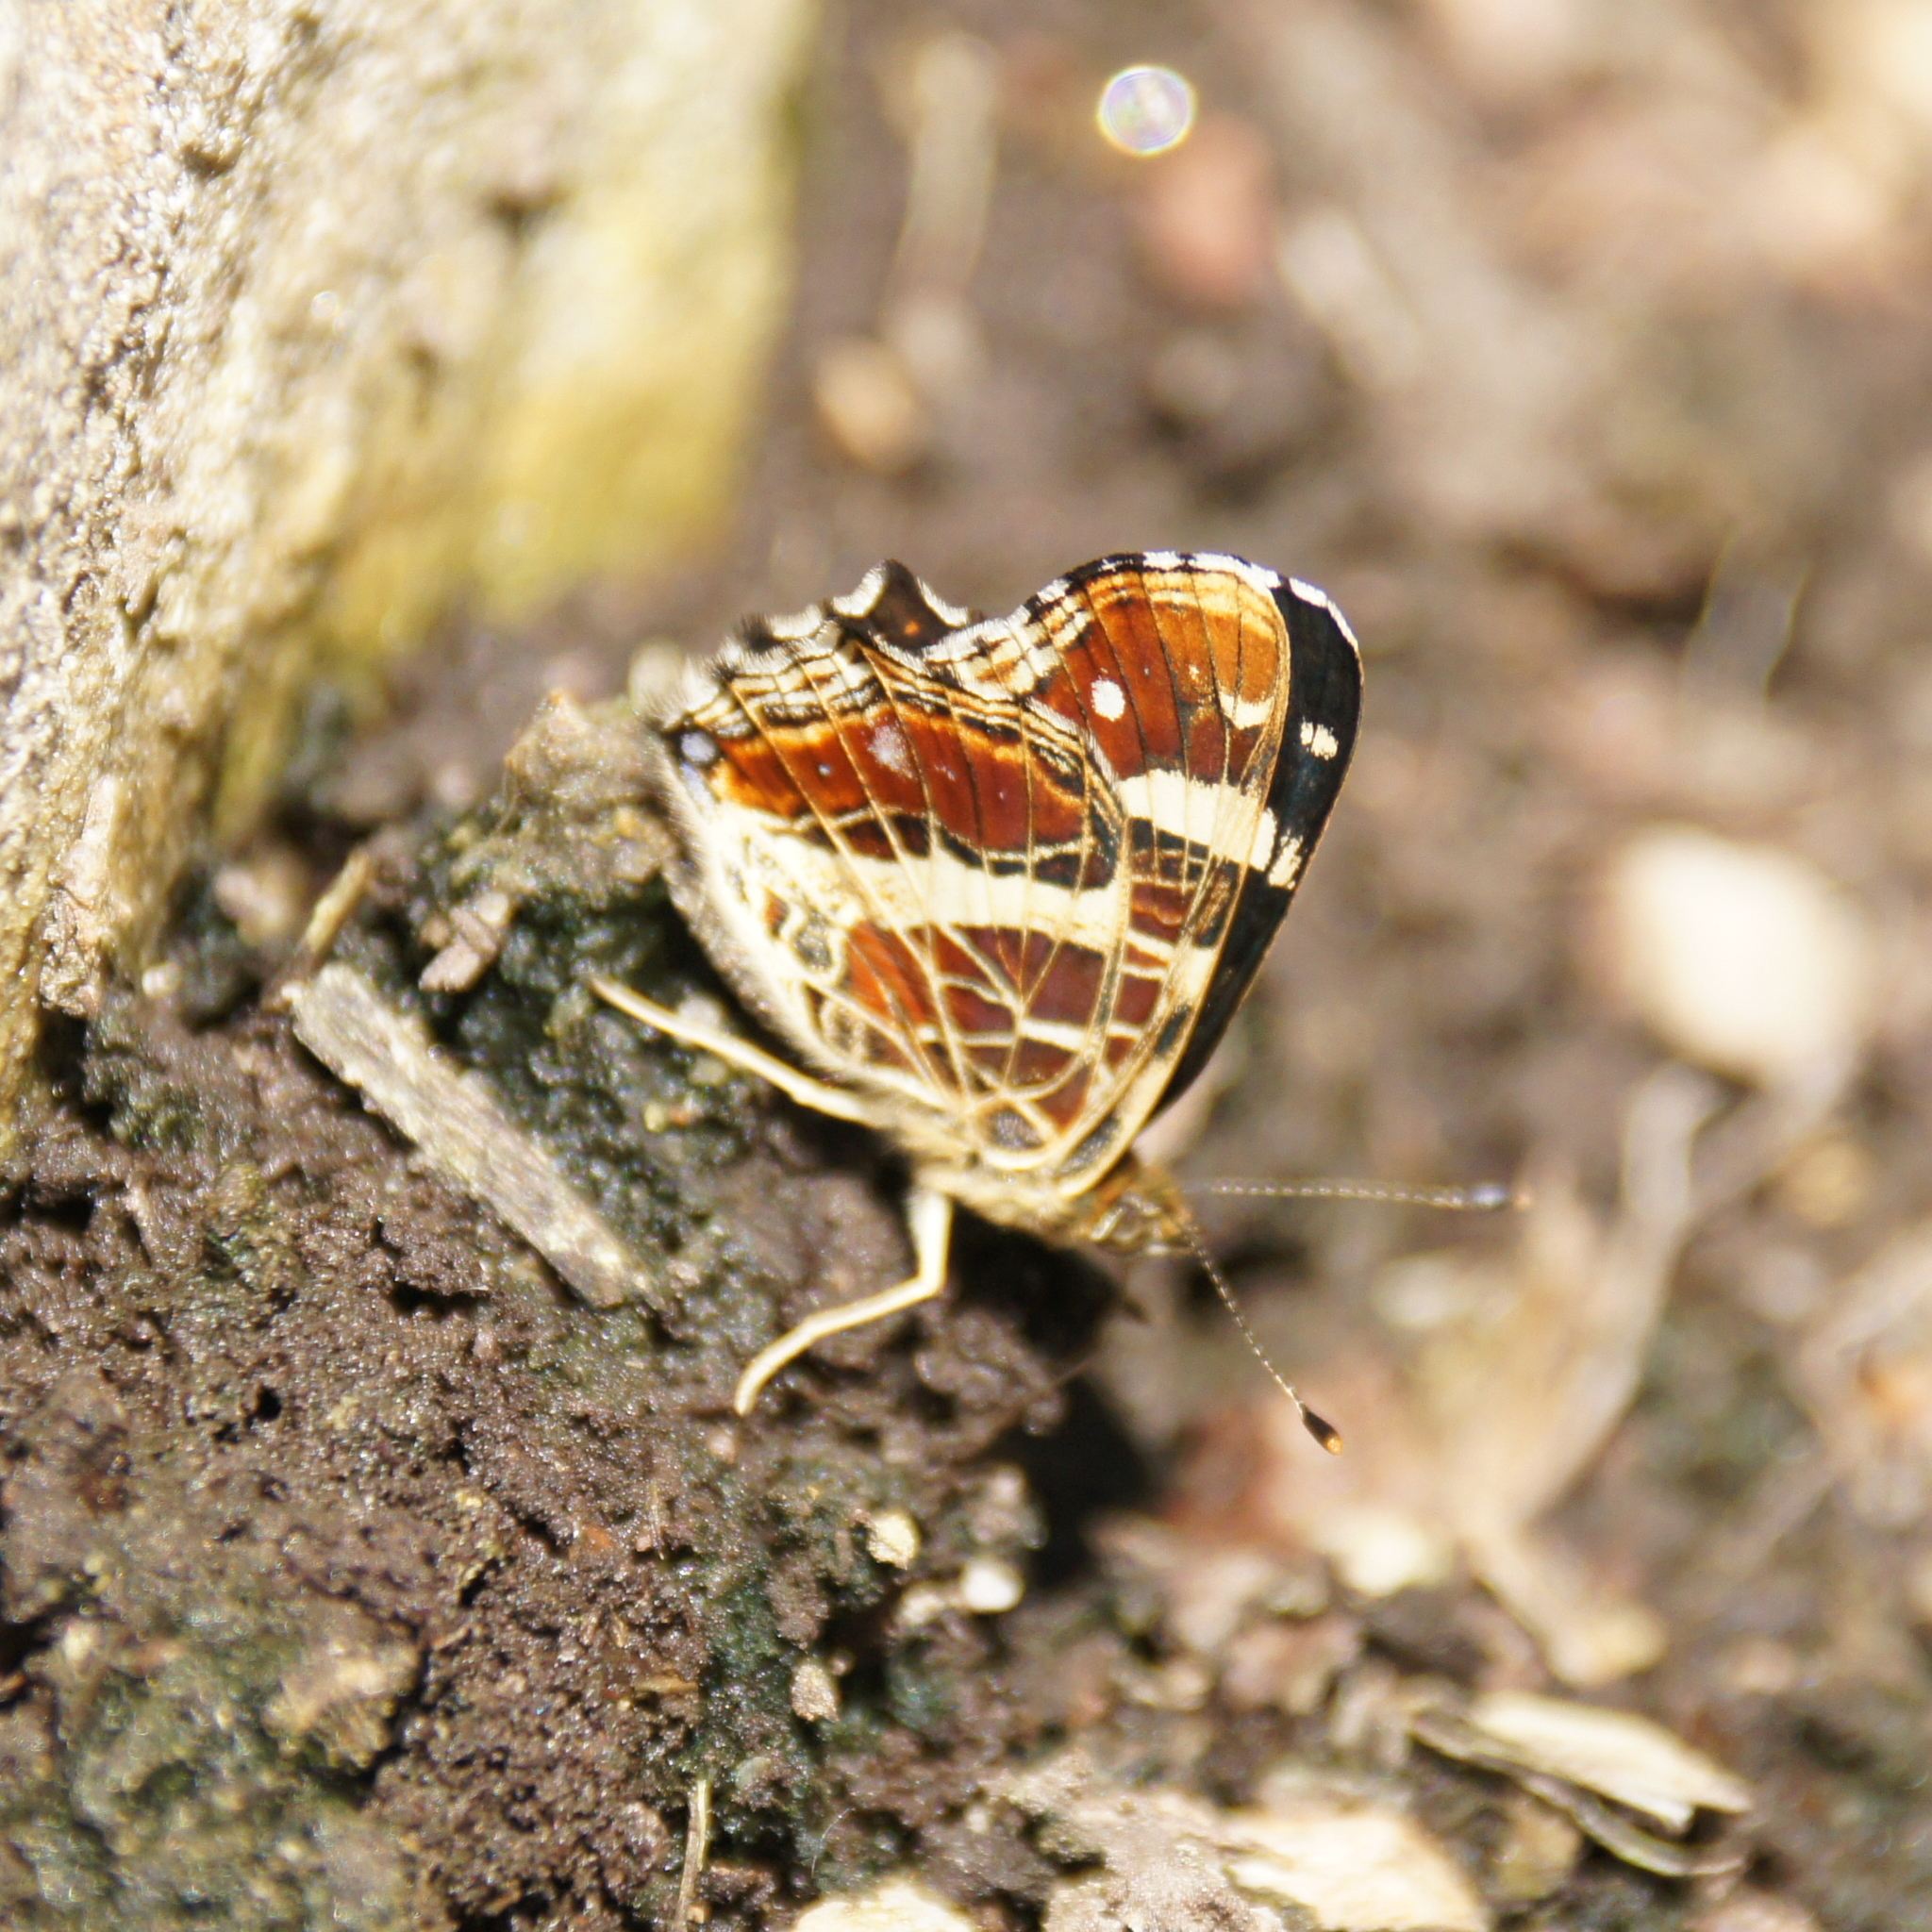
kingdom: Animalia
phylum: Arthropoda
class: Insecta
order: Lepidoptera
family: Nymphalidae
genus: Araschnia
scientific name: Araschnia levana
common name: Map butterfly
